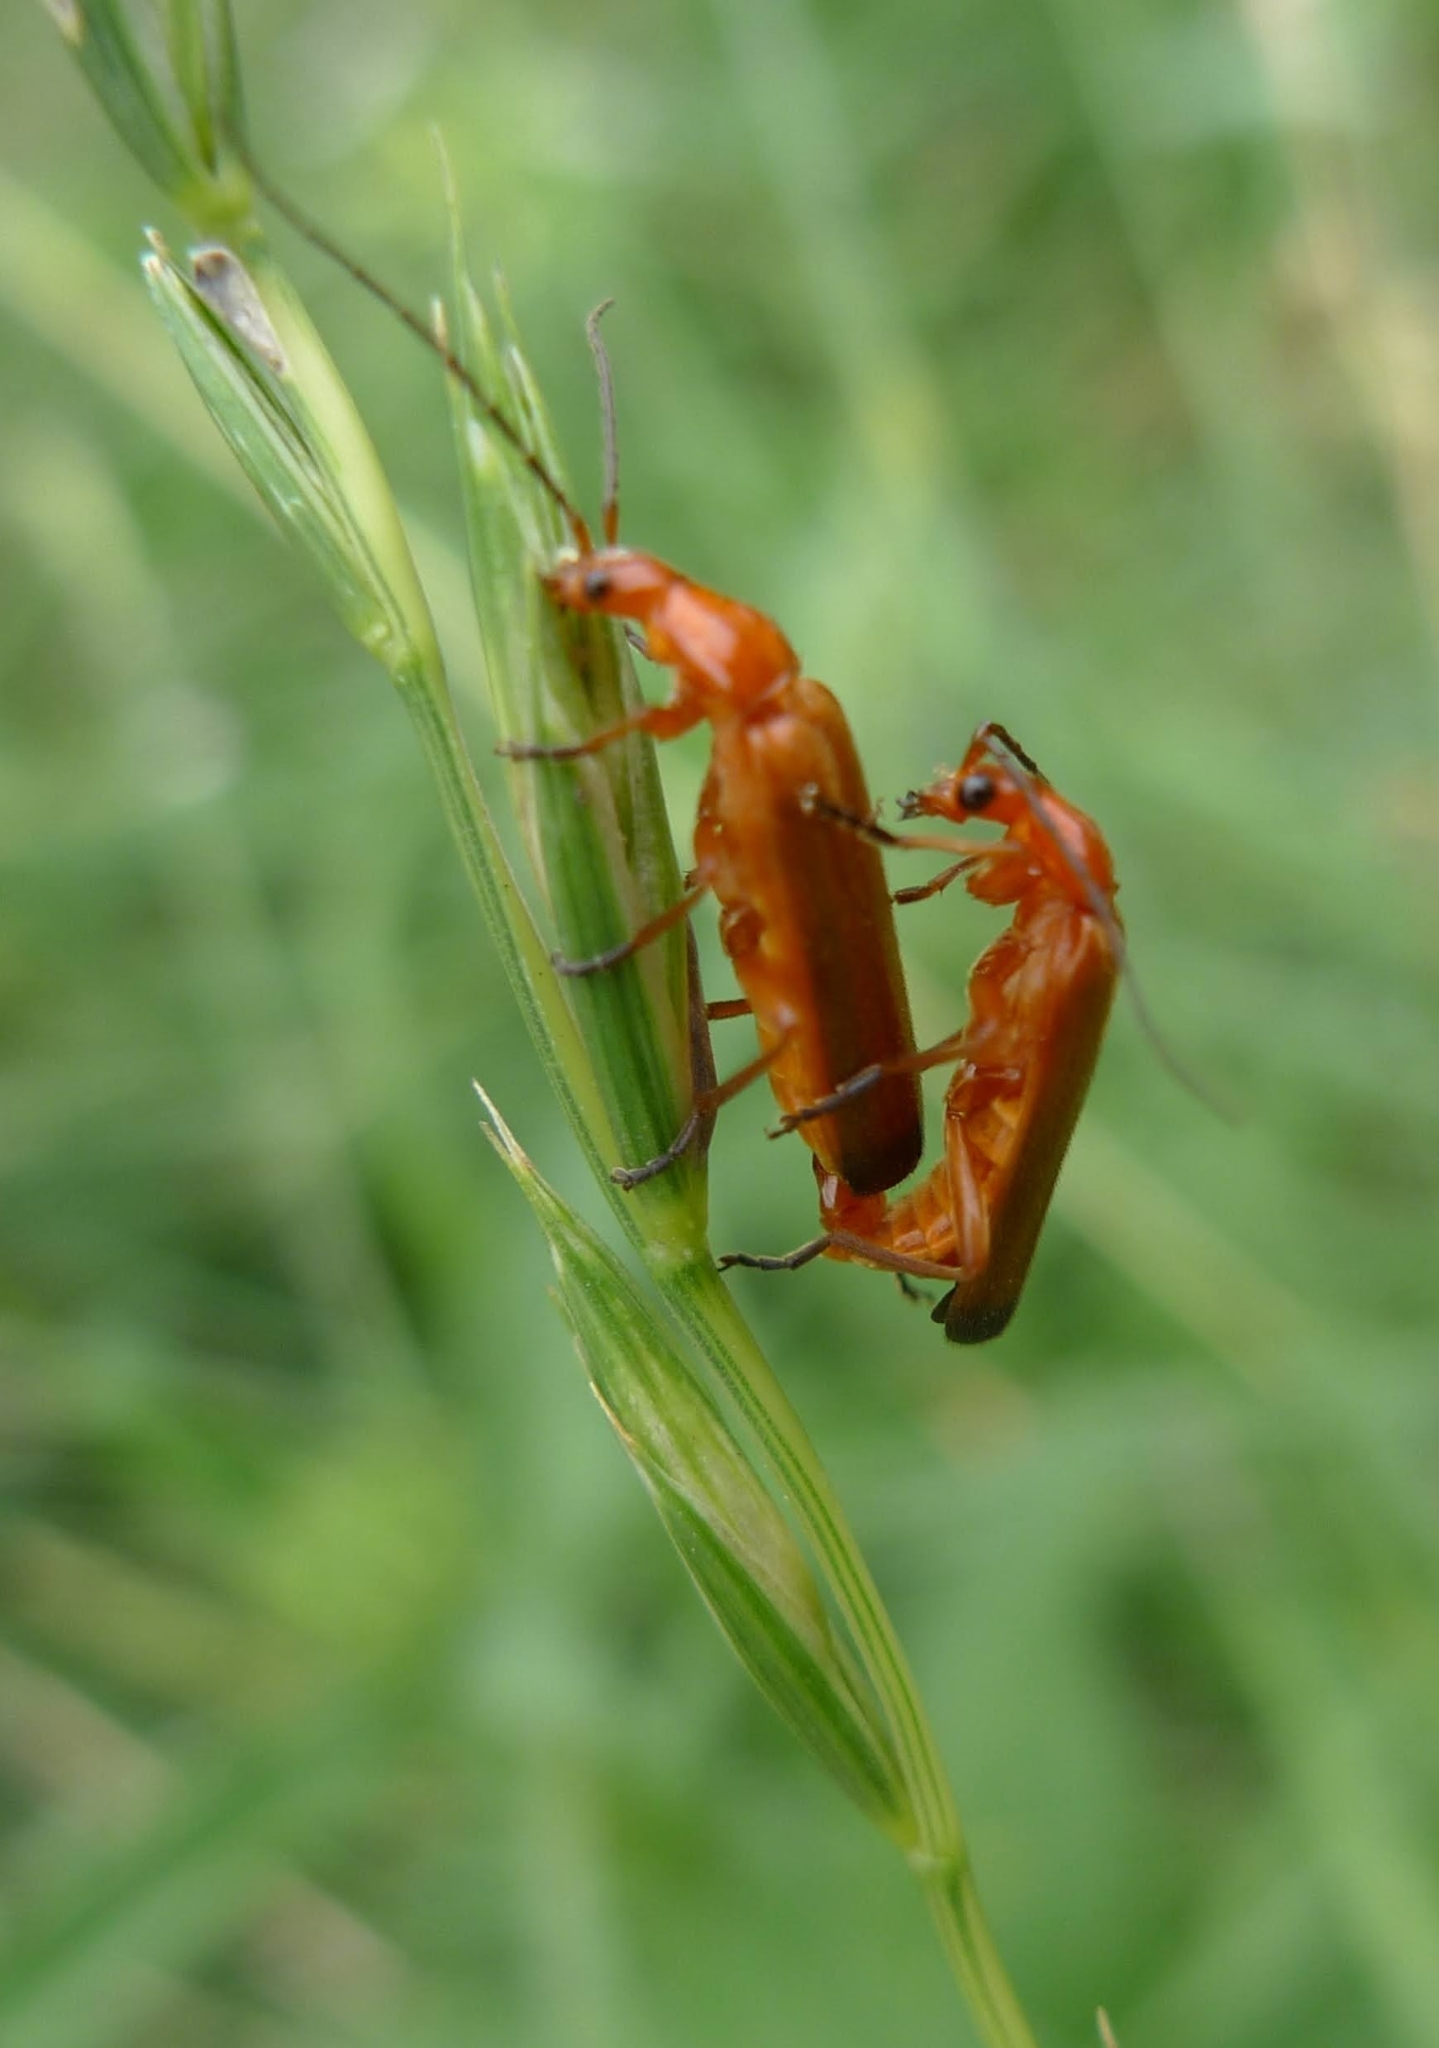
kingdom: Animalia
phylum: Arthropoda
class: Insecta
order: Coleoptera
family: Cantharidae
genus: Rhagonycha
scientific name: Rhagonycha fulva
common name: Common red soldier beetle
